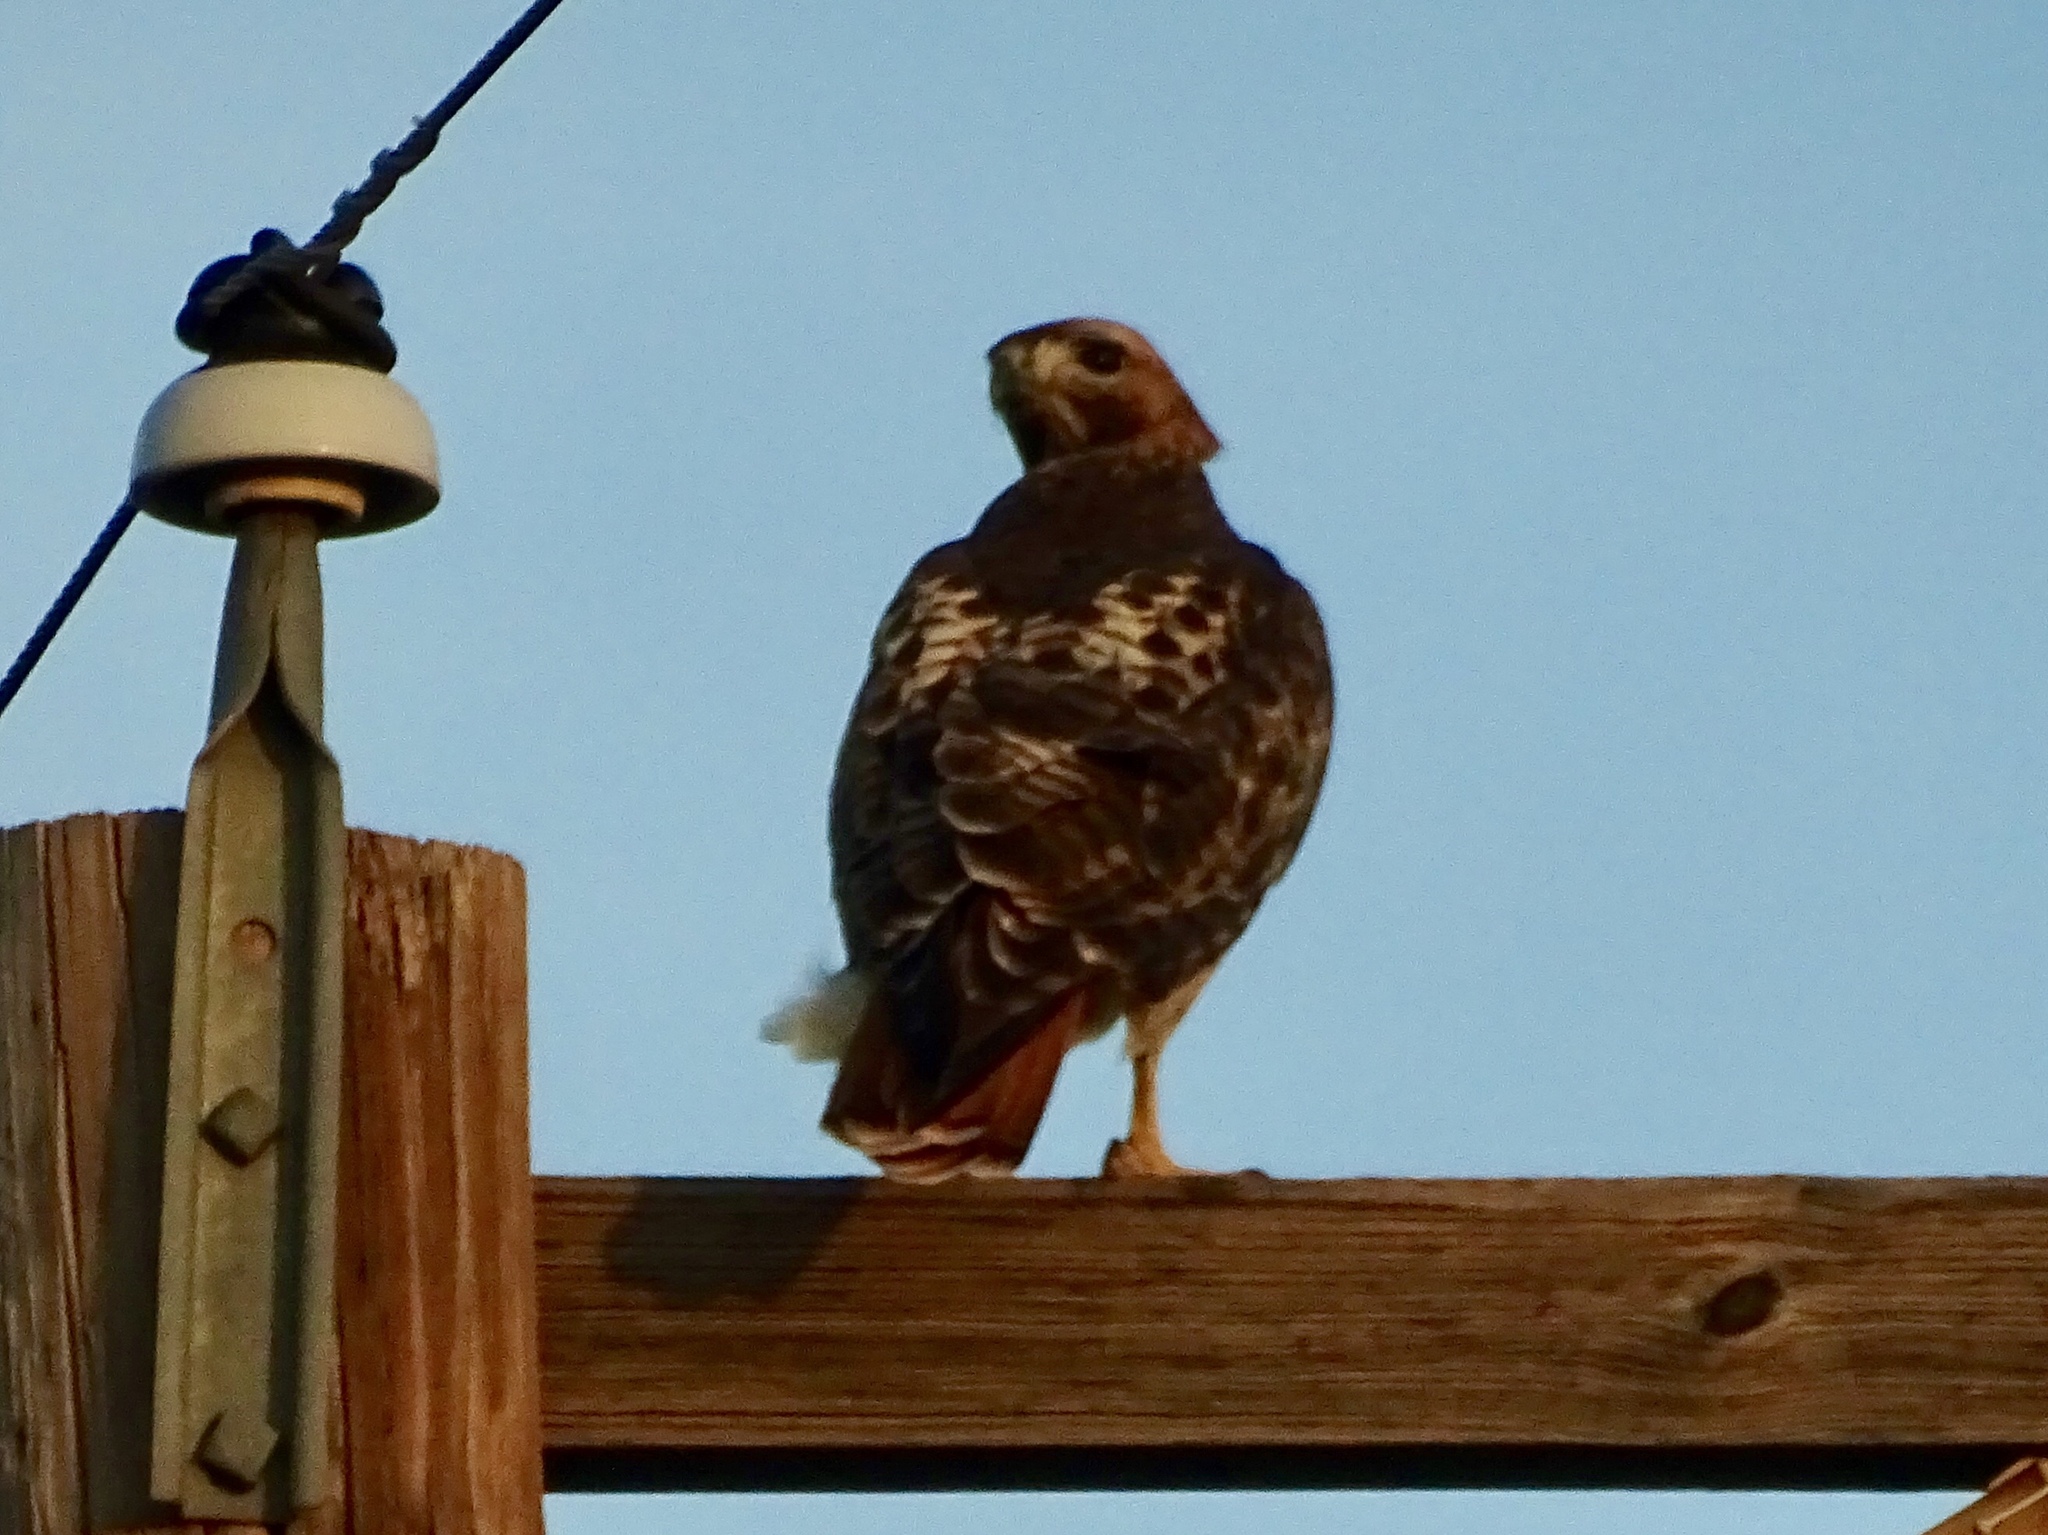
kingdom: Animalia
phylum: Chordata
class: Aves
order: Accipitriformes
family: Accipitridae
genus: Buteo
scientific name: Buteo jamaicensis
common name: Red-tailed hawk
